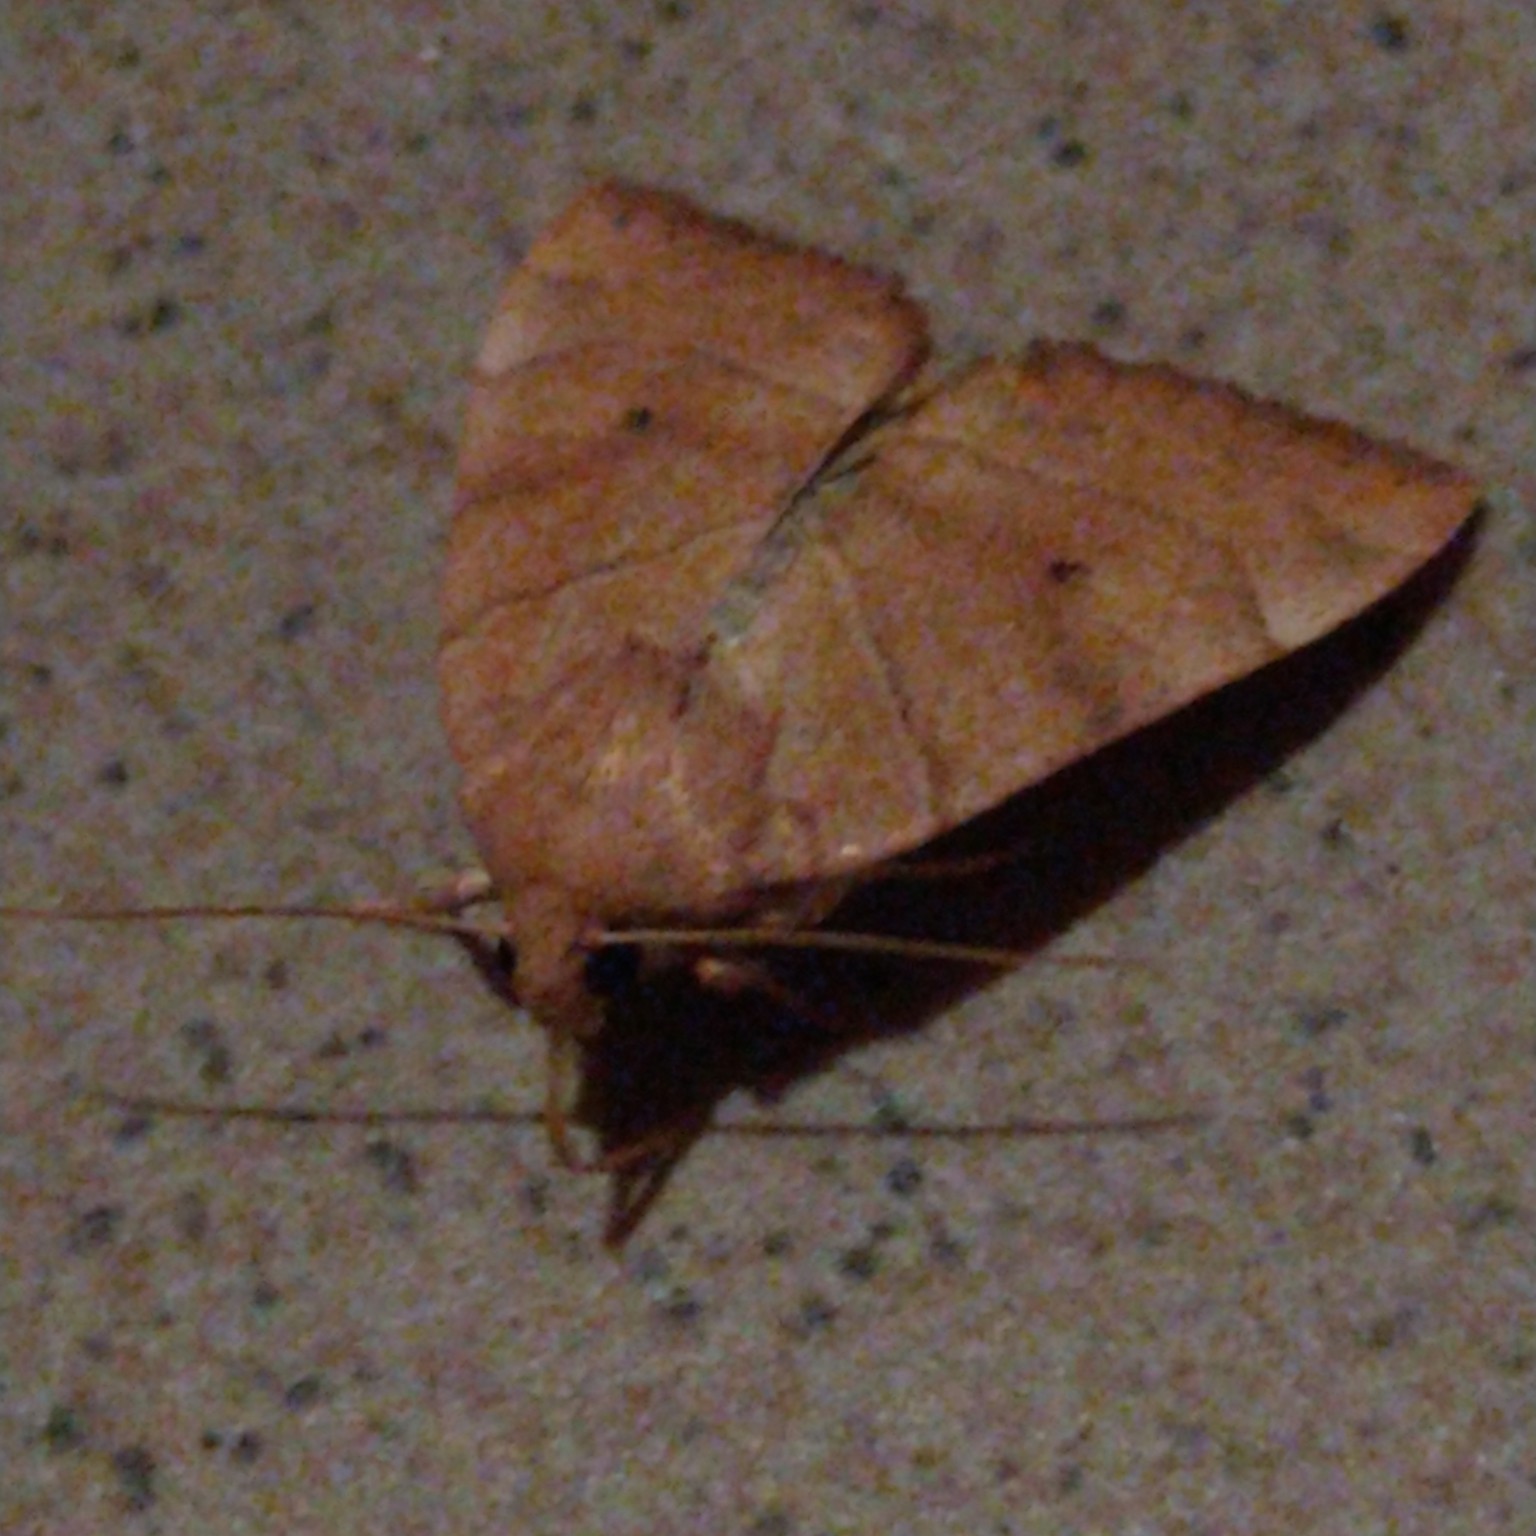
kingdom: Animalia
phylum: Arthropoda
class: Insecta
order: Lepidoptera
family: Noctuidae
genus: Cosmia
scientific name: Cosmia trapezina
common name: Dun-bar
